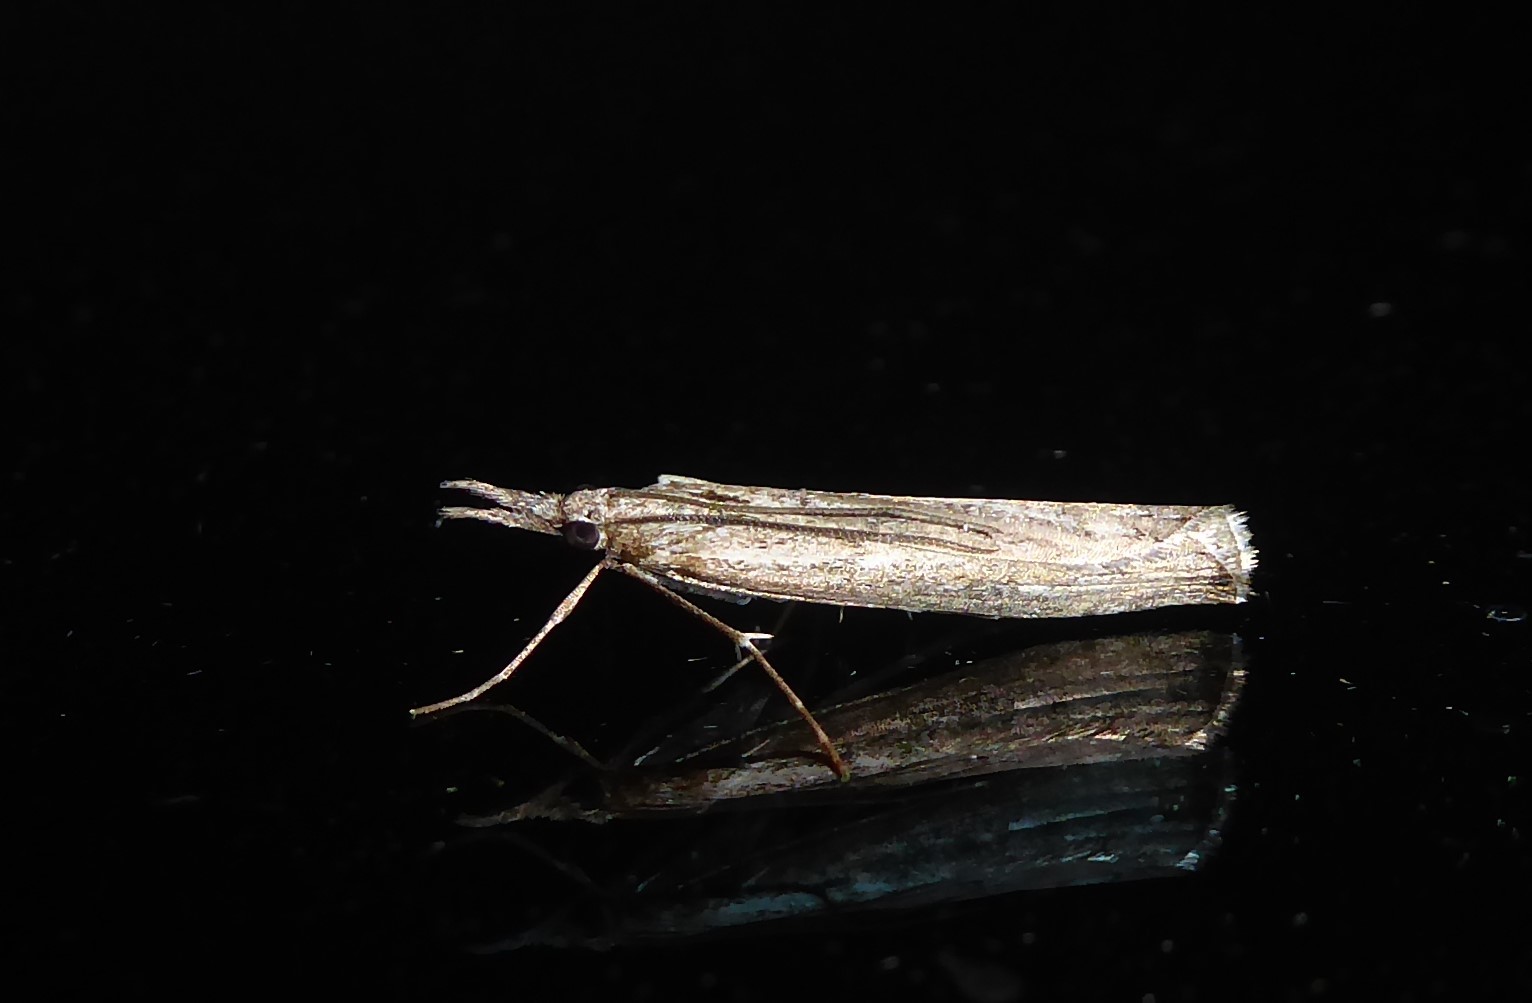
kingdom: Animalia
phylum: Arthropoda
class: Insecta
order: Lepidoptera
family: Crambidae
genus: Orocrambus
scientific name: Orocrambus cyclopicus
